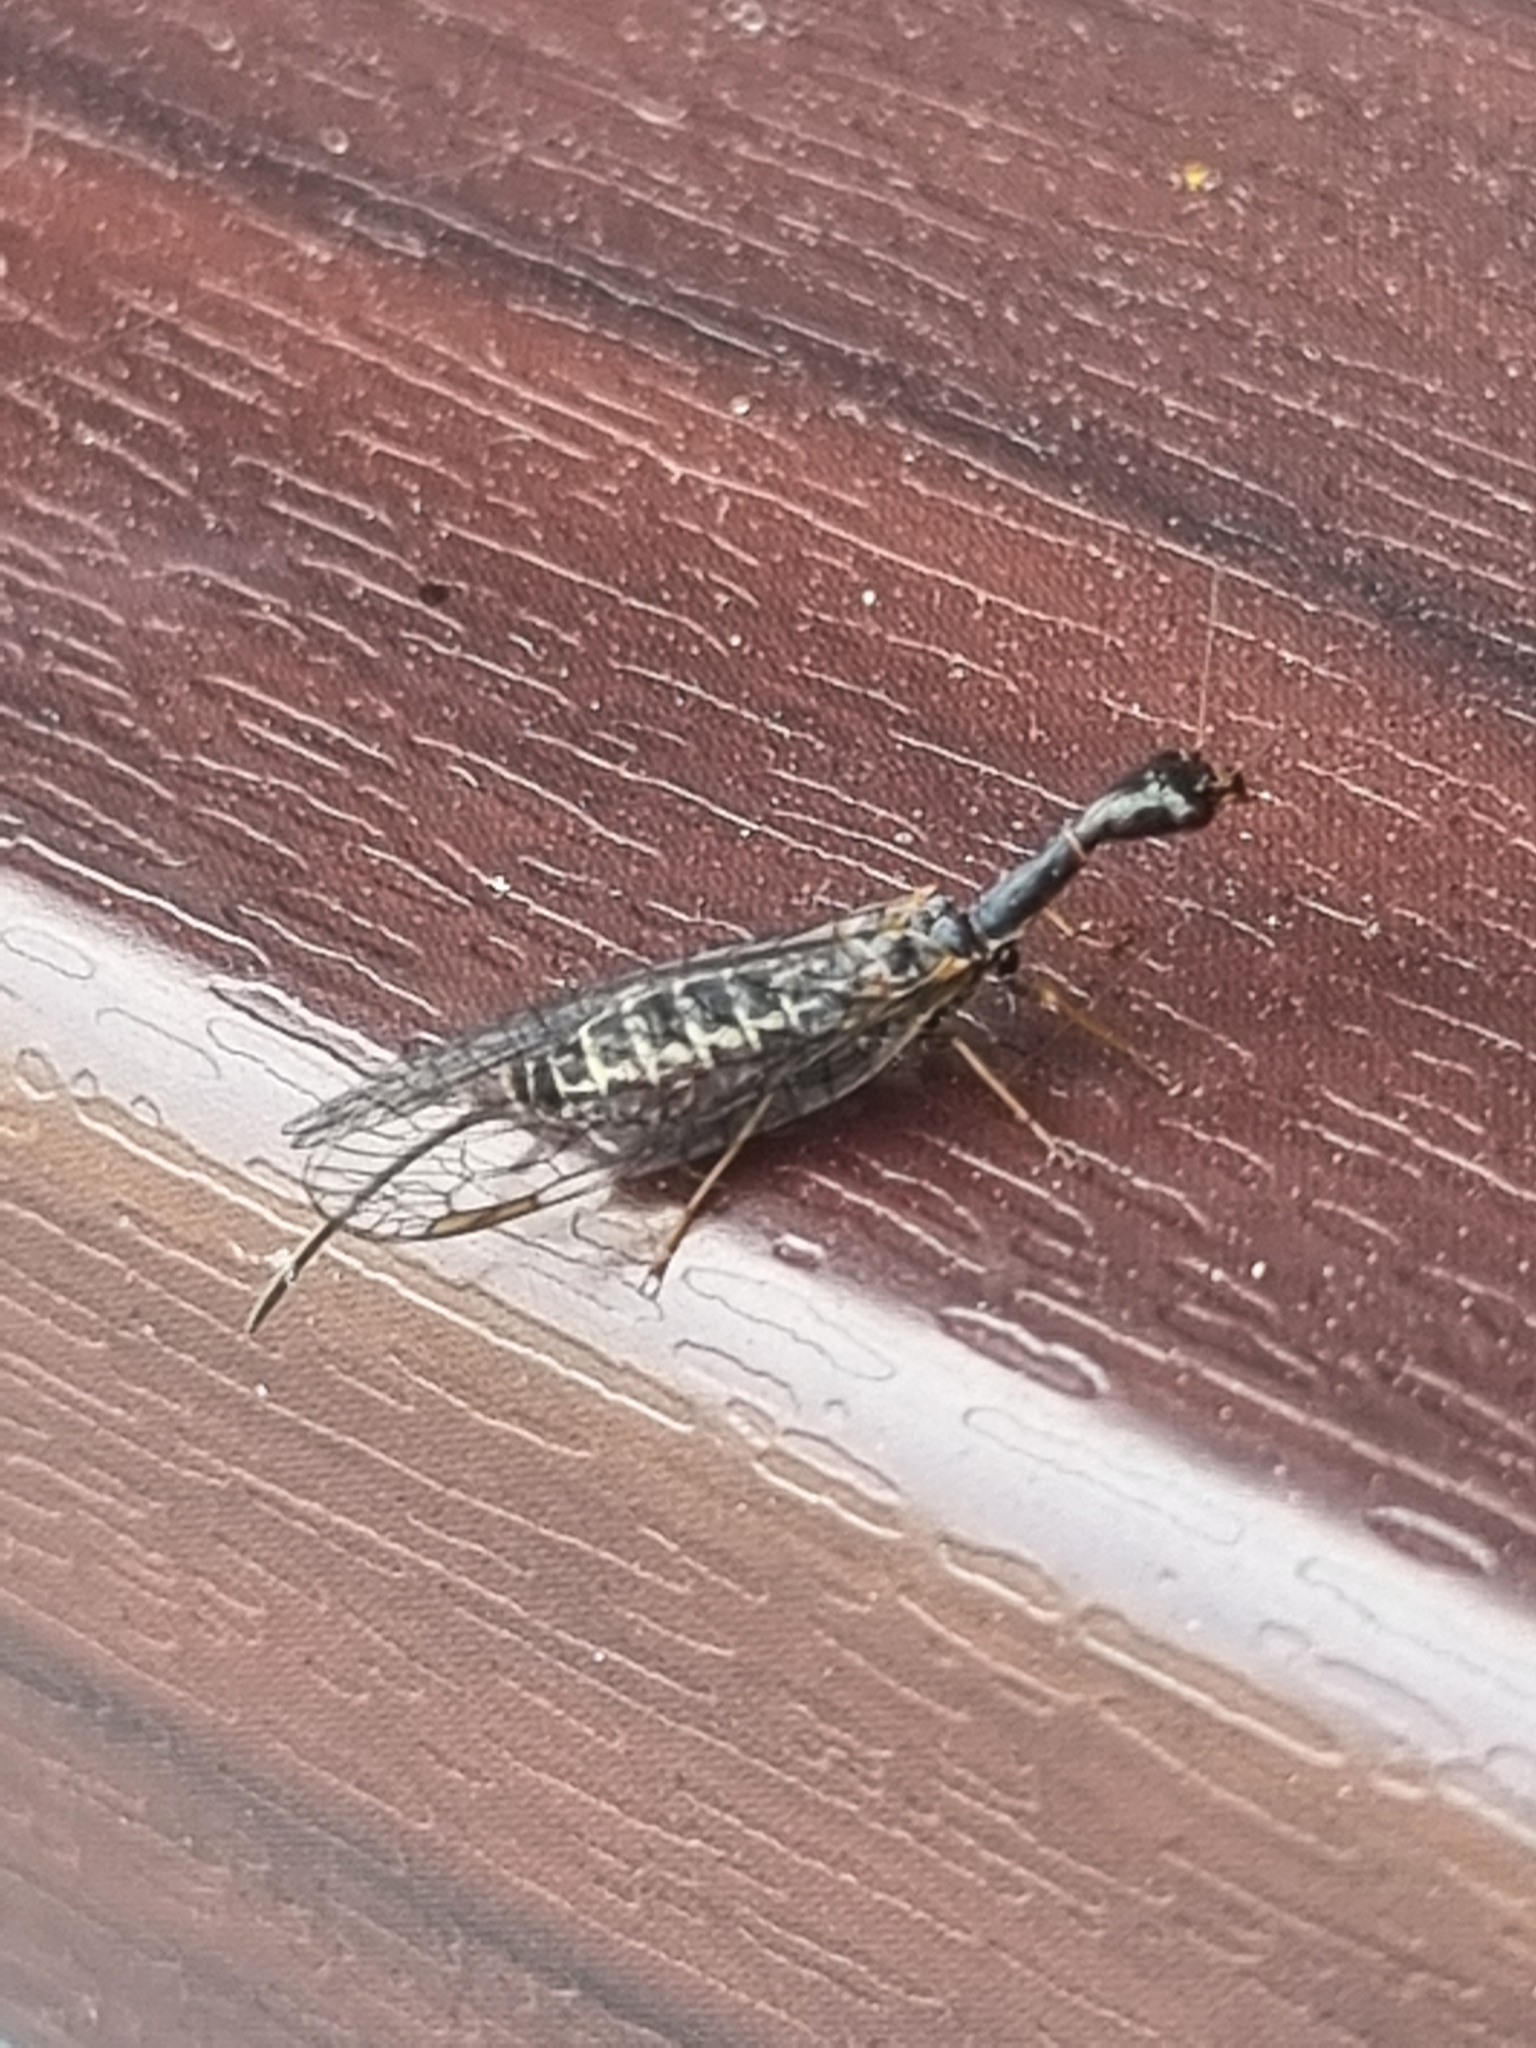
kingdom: Animalia
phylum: Arthropoda
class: Insecta
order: Raphidioptera
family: Raphidiidae
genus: Atlantoraphidia
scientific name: Atlantoraphidia maculicollis
